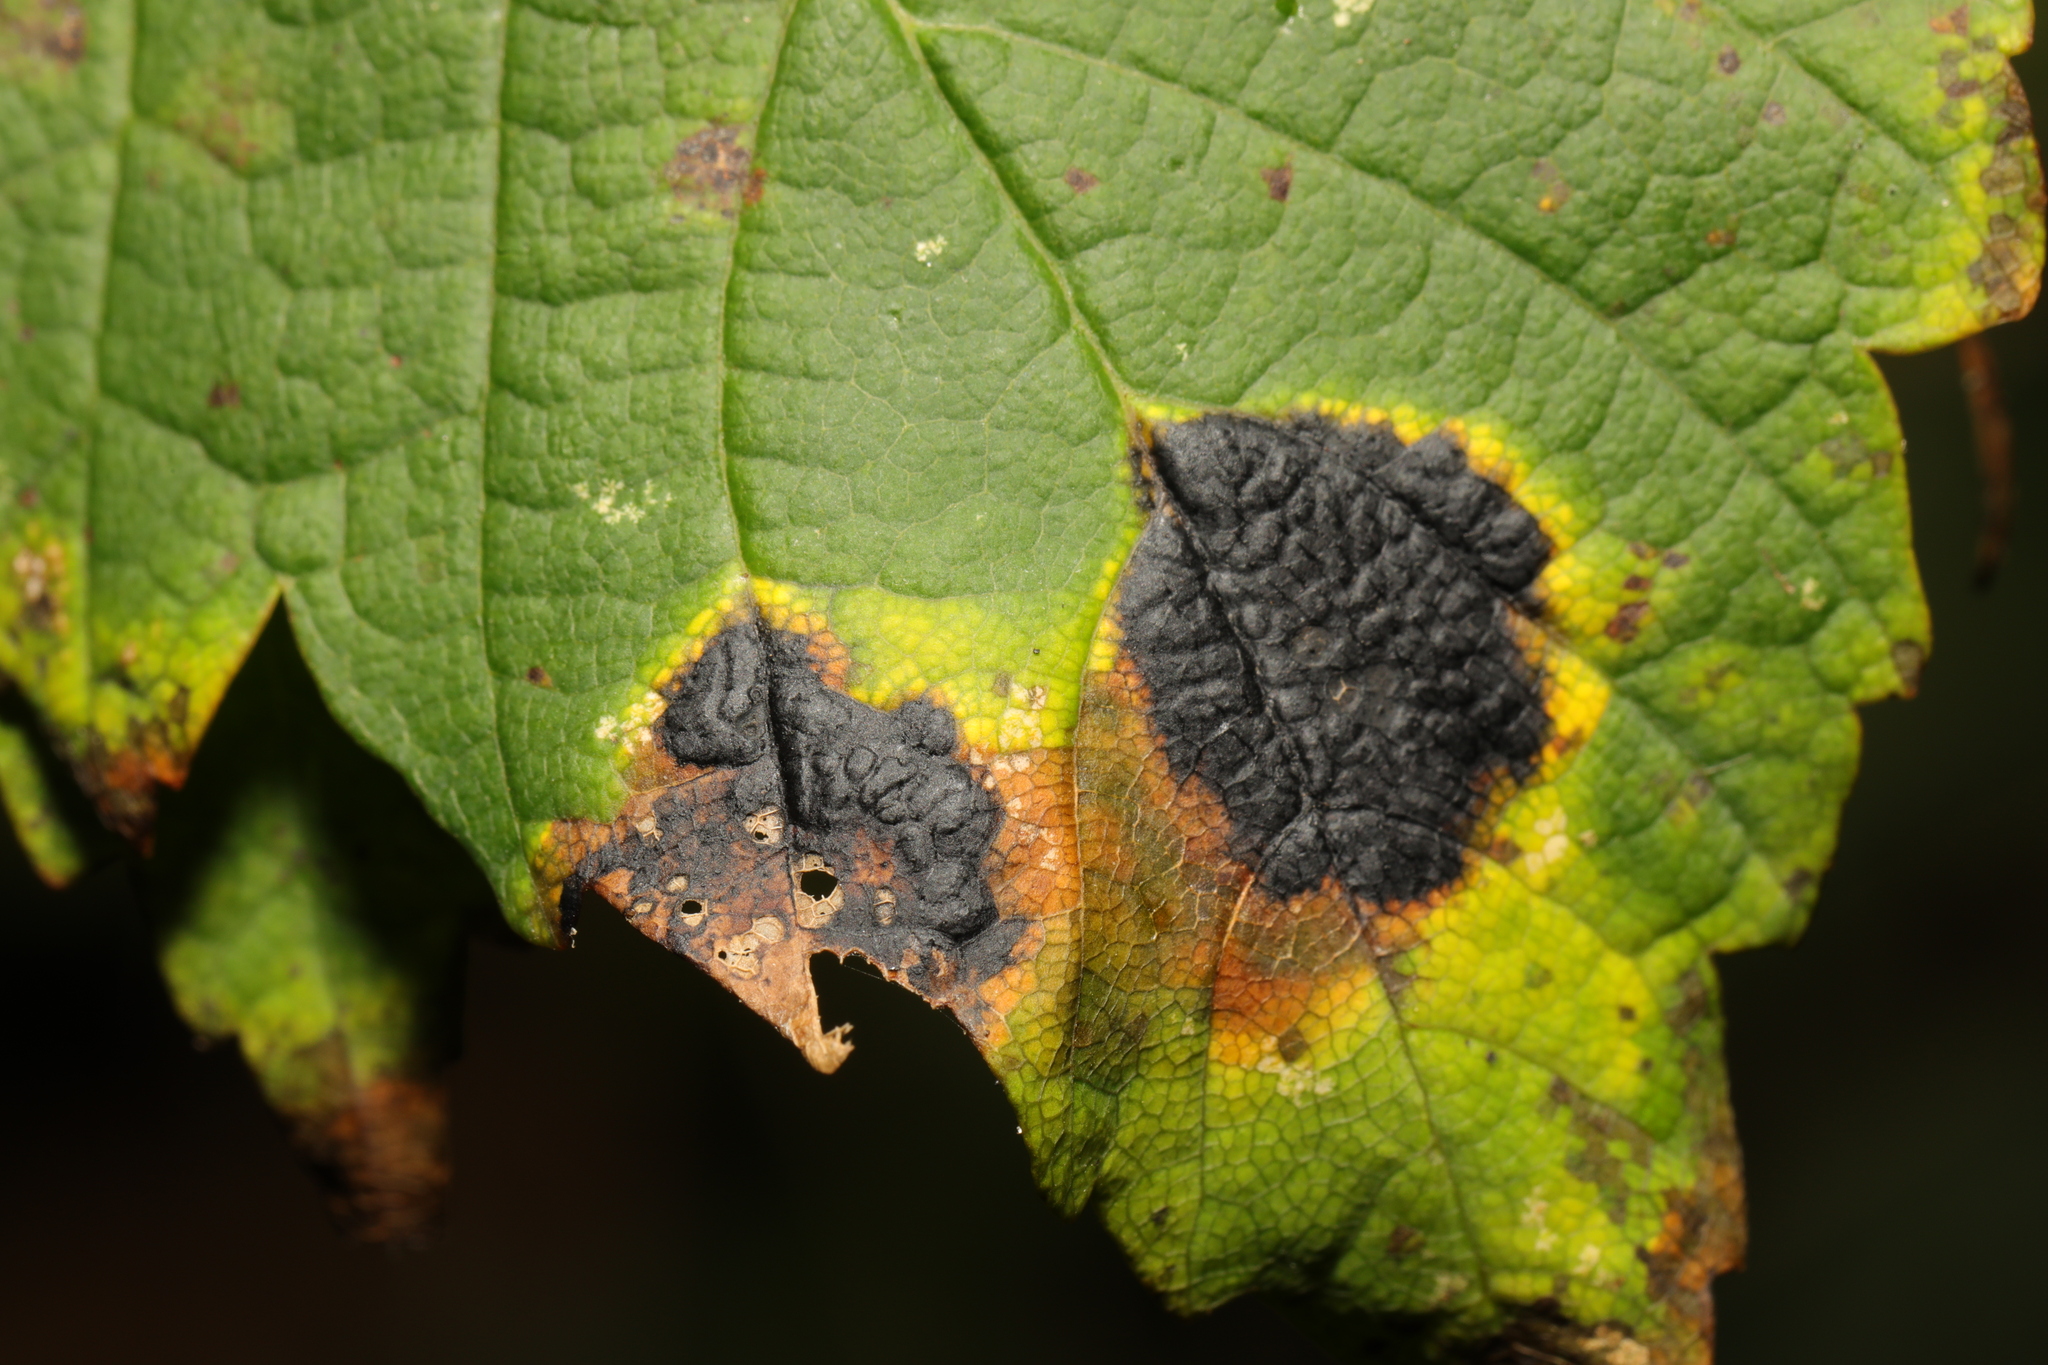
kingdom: Fungi
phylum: Ascomycota
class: Leotiomycetes
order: Rhytismatales
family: Rhytismataceae
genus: Rhytisma
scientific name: Rhytisma acerinum
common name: European tar spot
